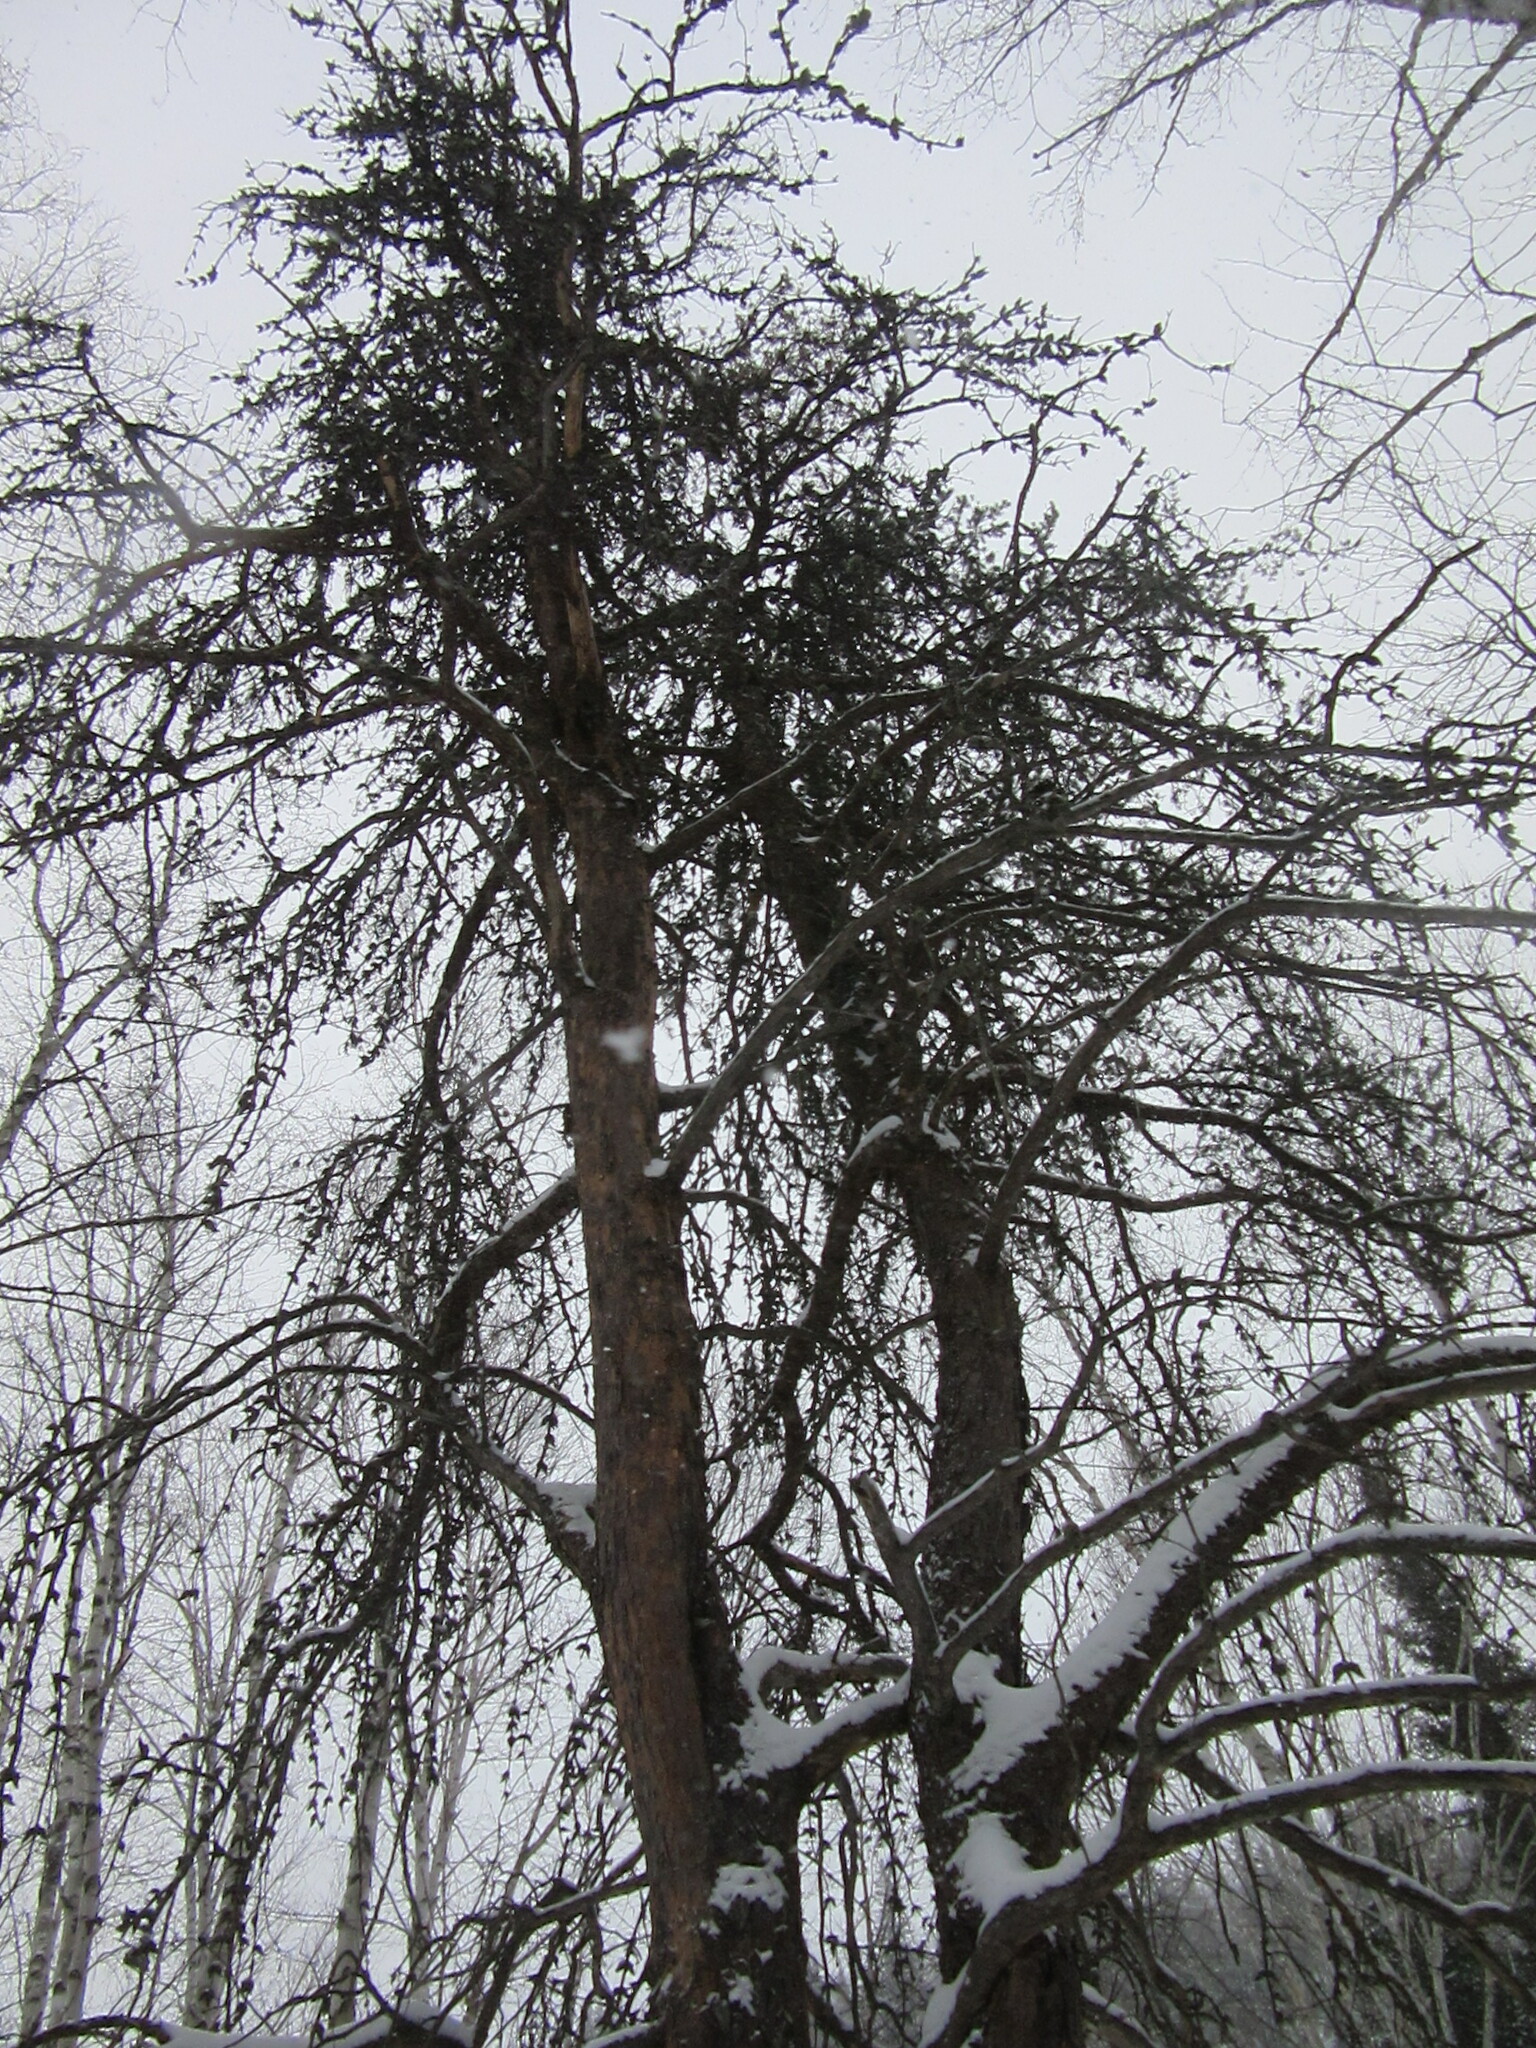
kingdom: Plantae
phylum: Tracheophyta
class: Pinopsida
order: Pinales
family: Pinaceae
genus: Pinus
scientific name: Pinus banksiana
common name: Jack pine
